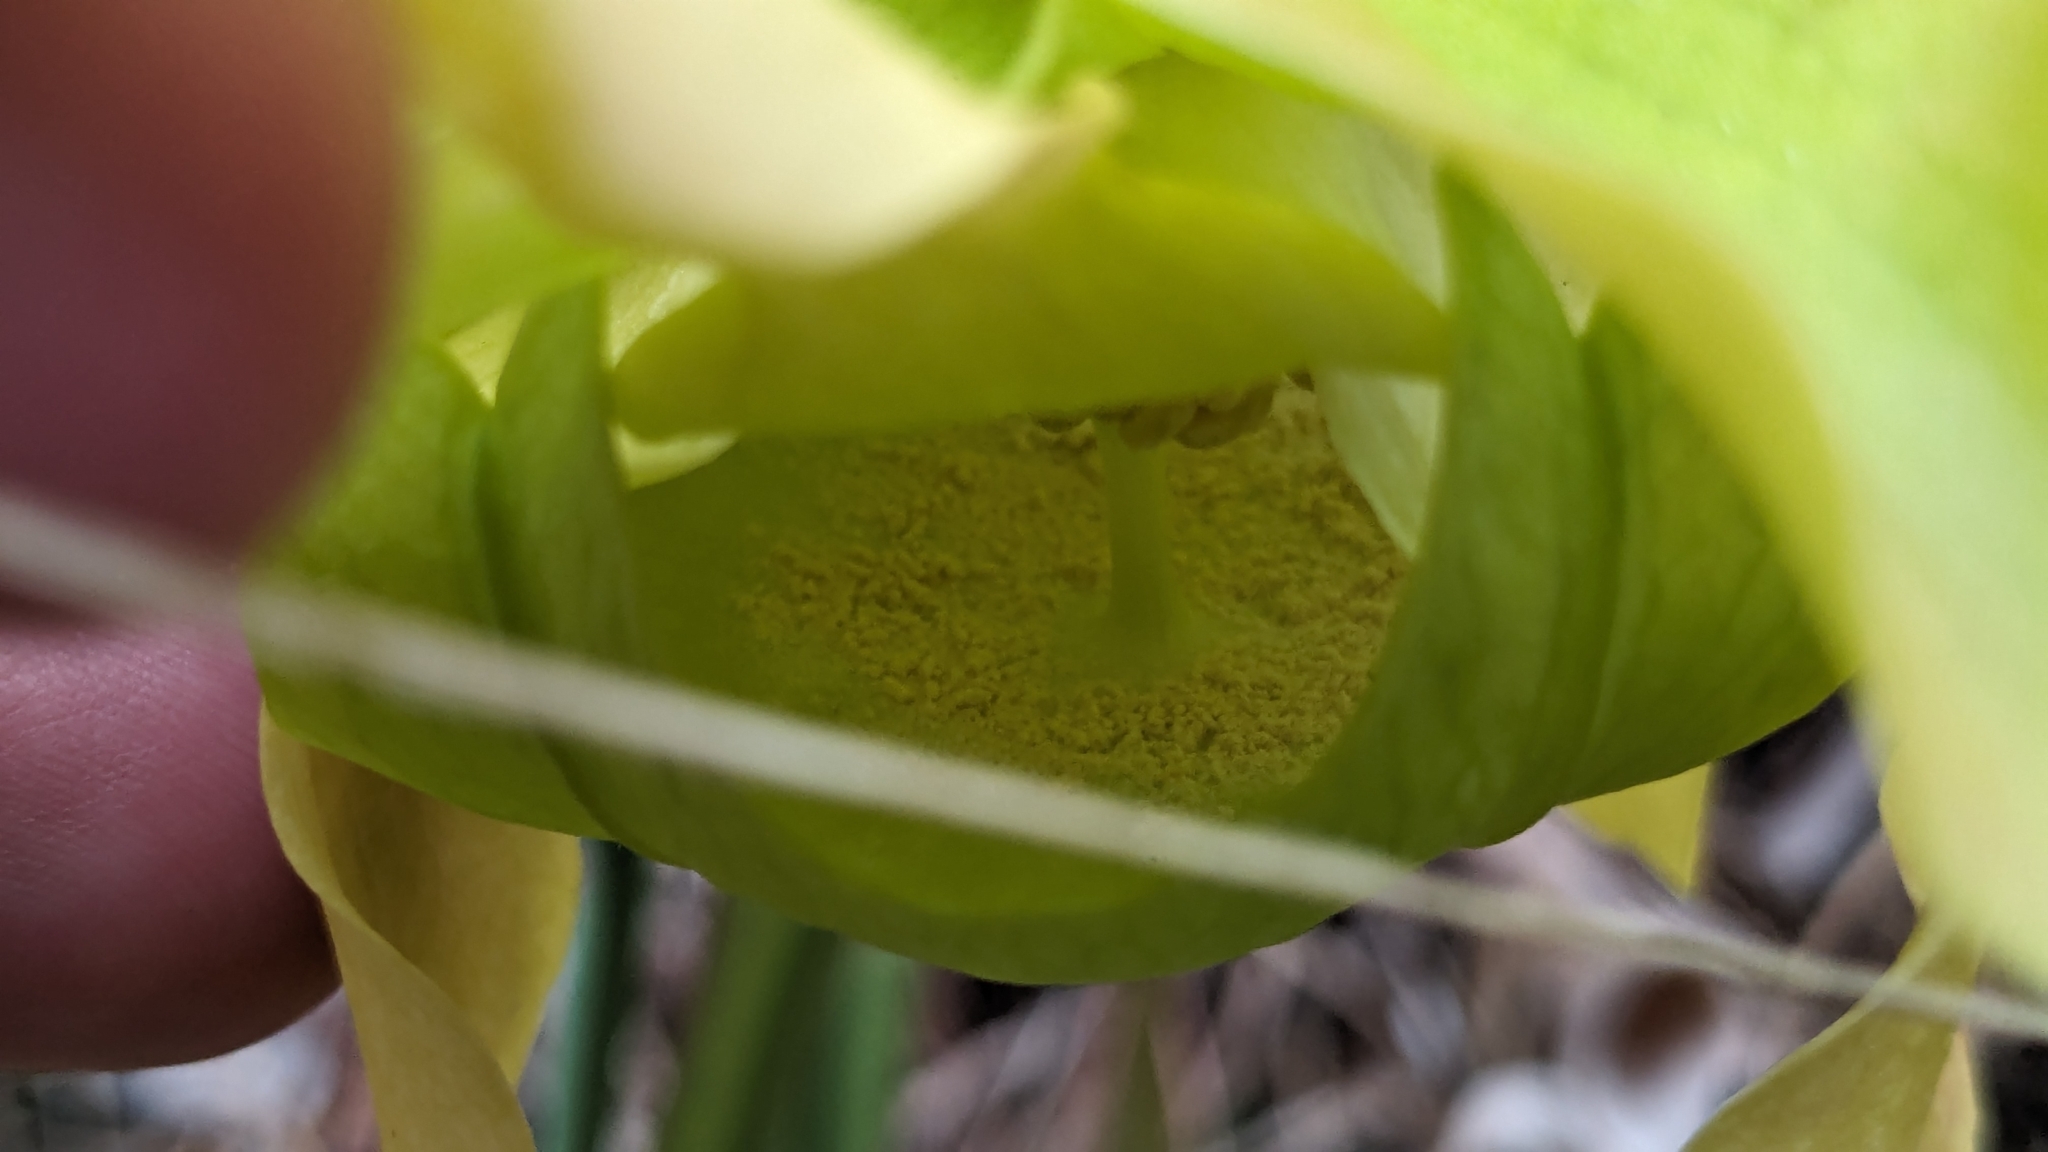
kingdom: Plantae
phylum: Tracheophyta
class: Magnoliopsida
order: Ericales
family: Sarraceniaceae
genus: Sarracenia
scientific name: Sarracenia alata
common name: Yellow trumpets
